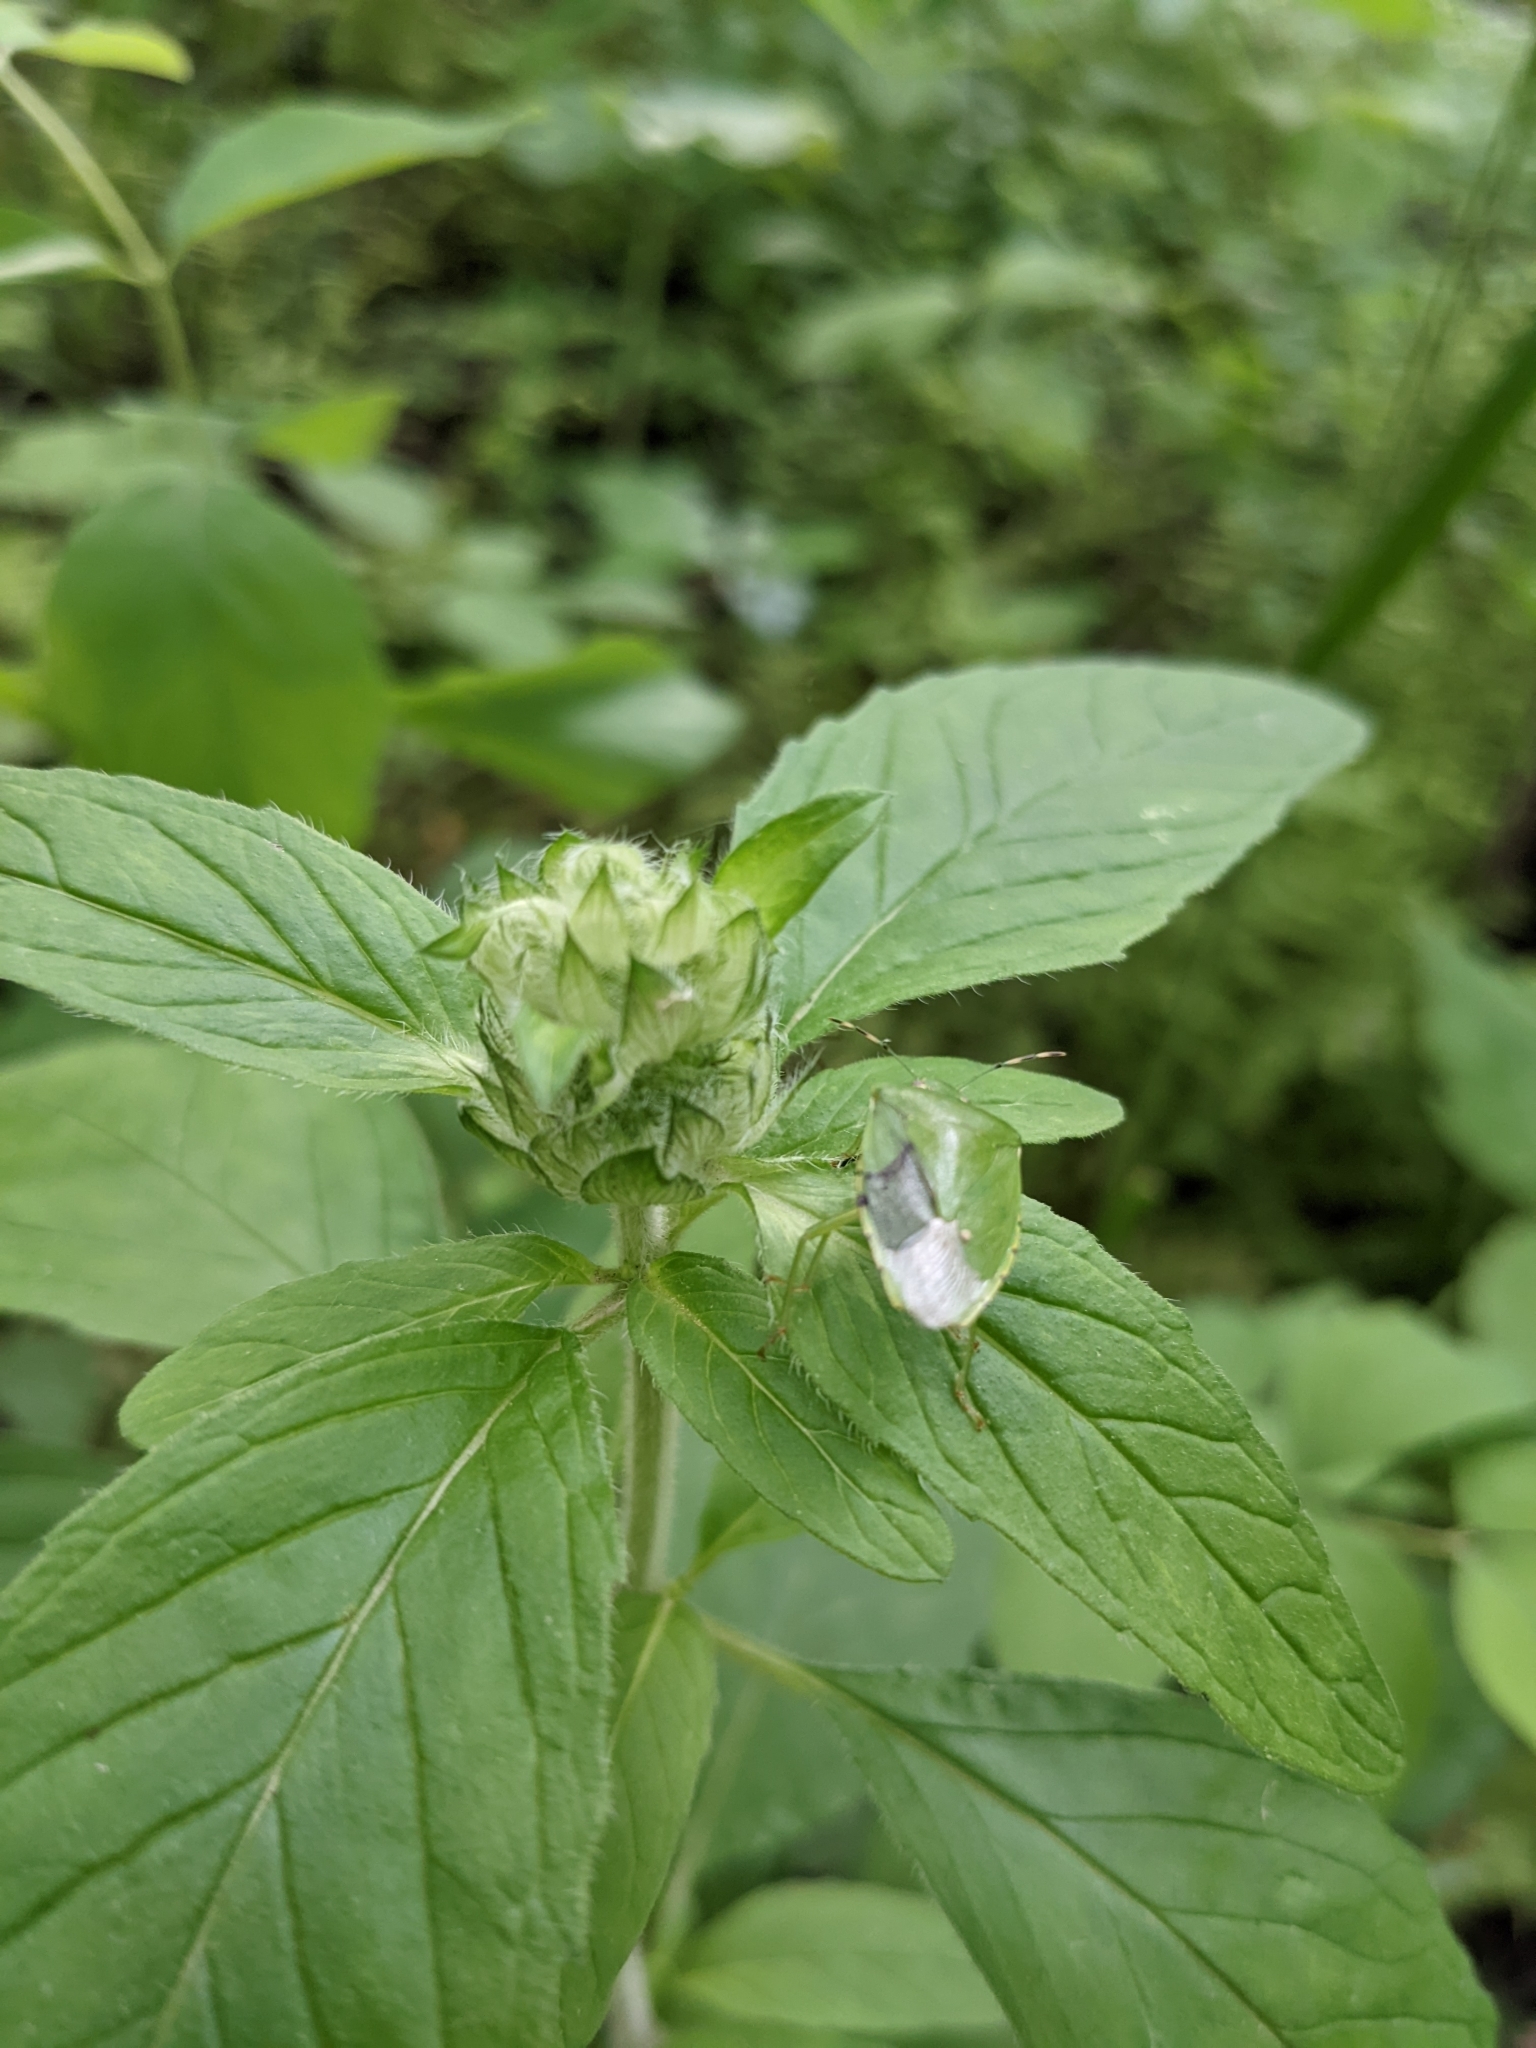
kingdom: Animalia
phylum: Arthropoda
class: Insecta
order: Hemiptera
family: Pentatomidae
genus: Chinavia
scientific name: Chinavia hilaris
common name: Green stink bug
